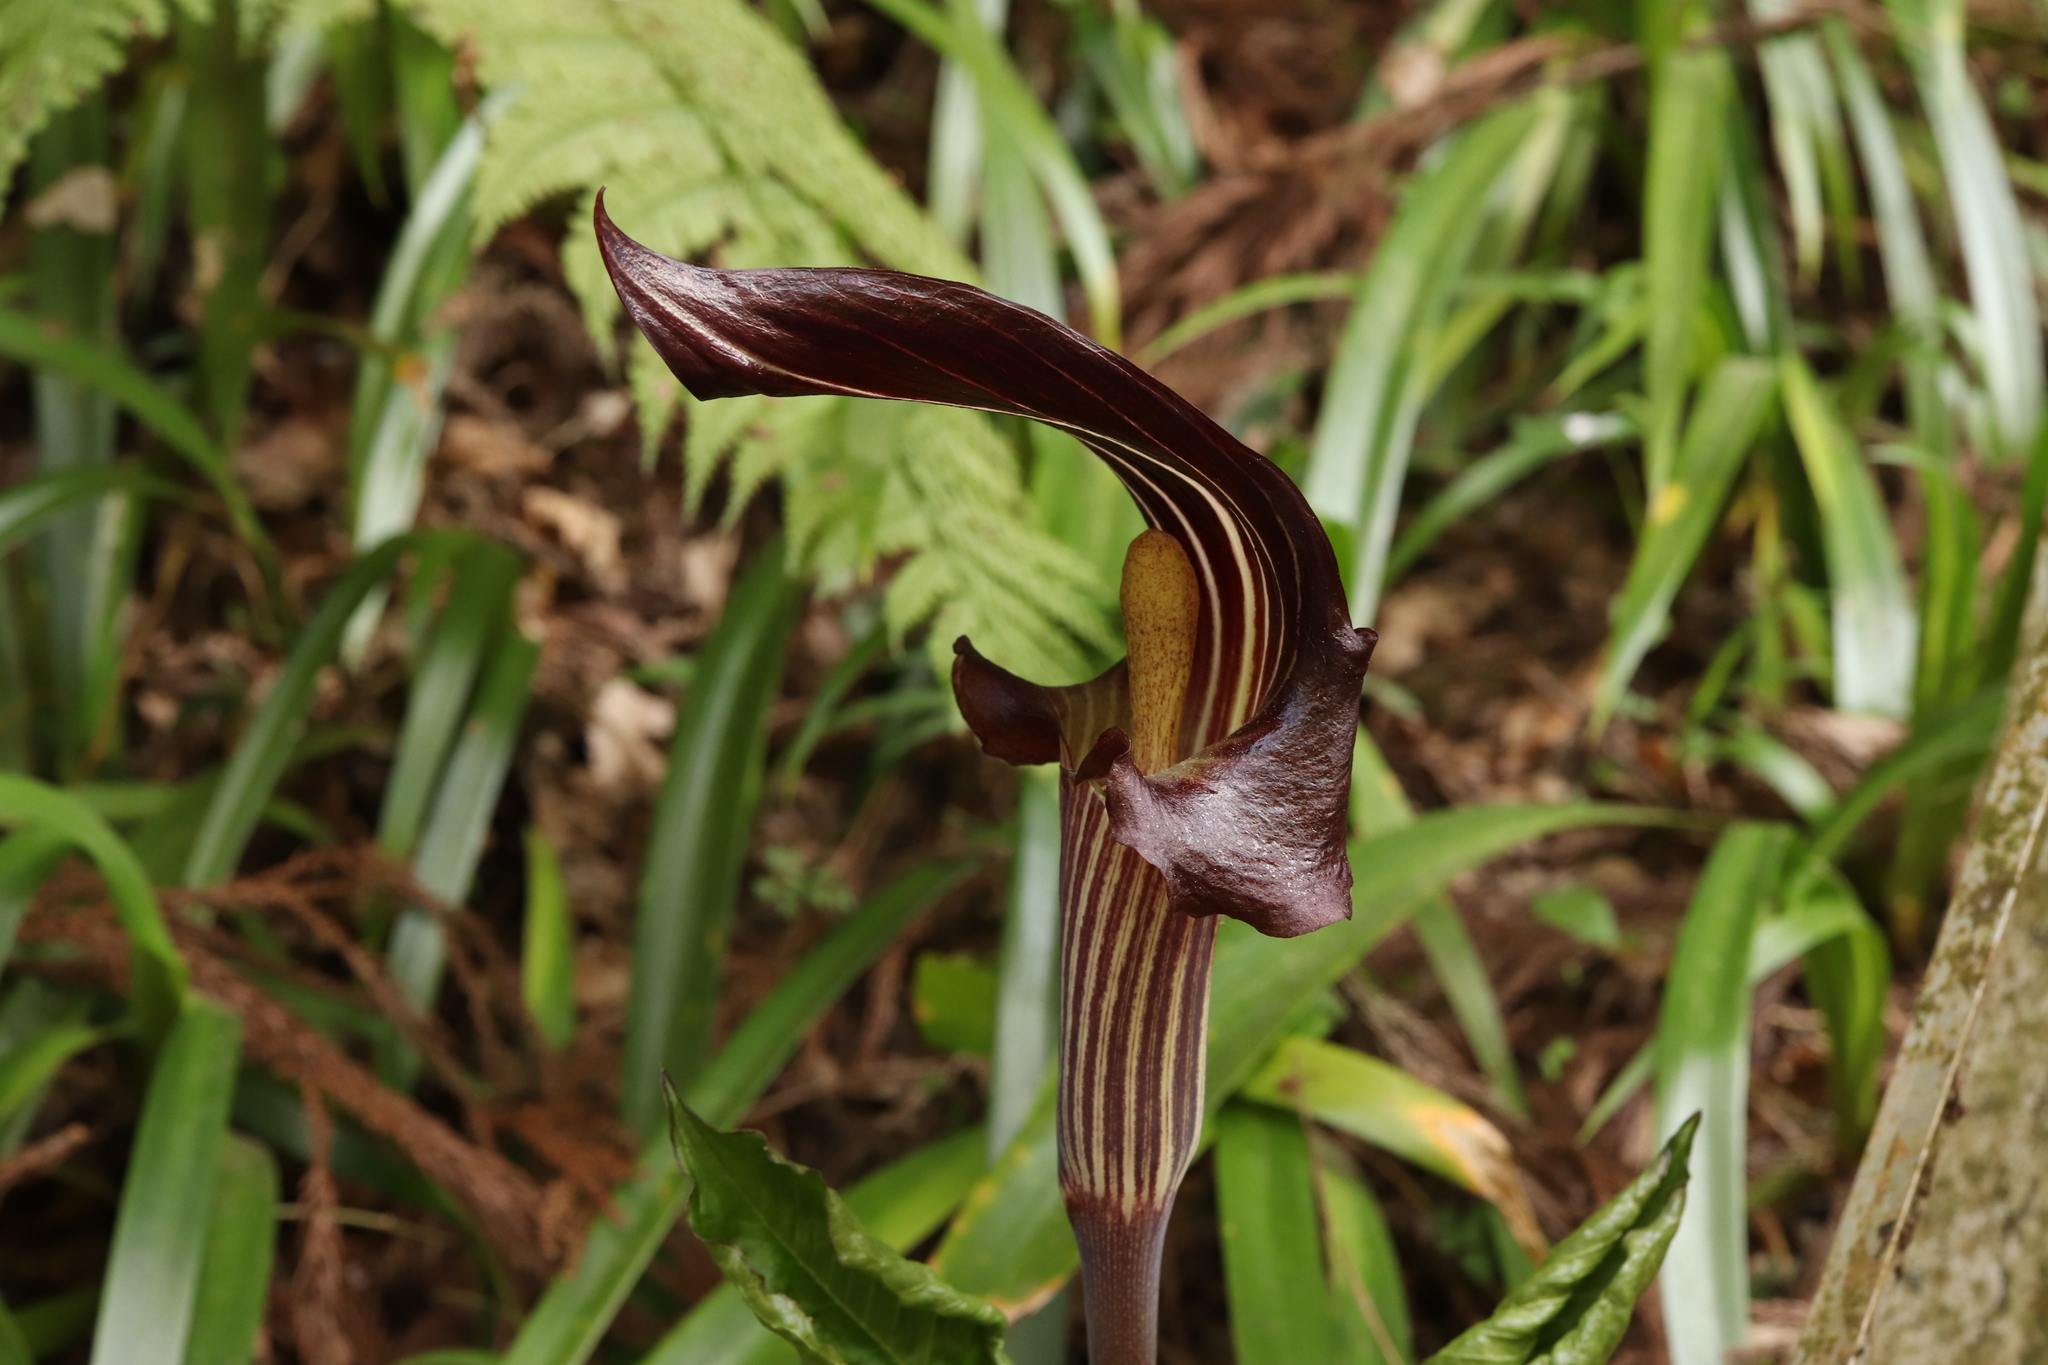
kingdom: Plantae
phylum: Tracheophyta
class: Liliopsida
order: Alismatales
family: Araceae
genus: Arisaema
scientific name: Arisaema limbatum
